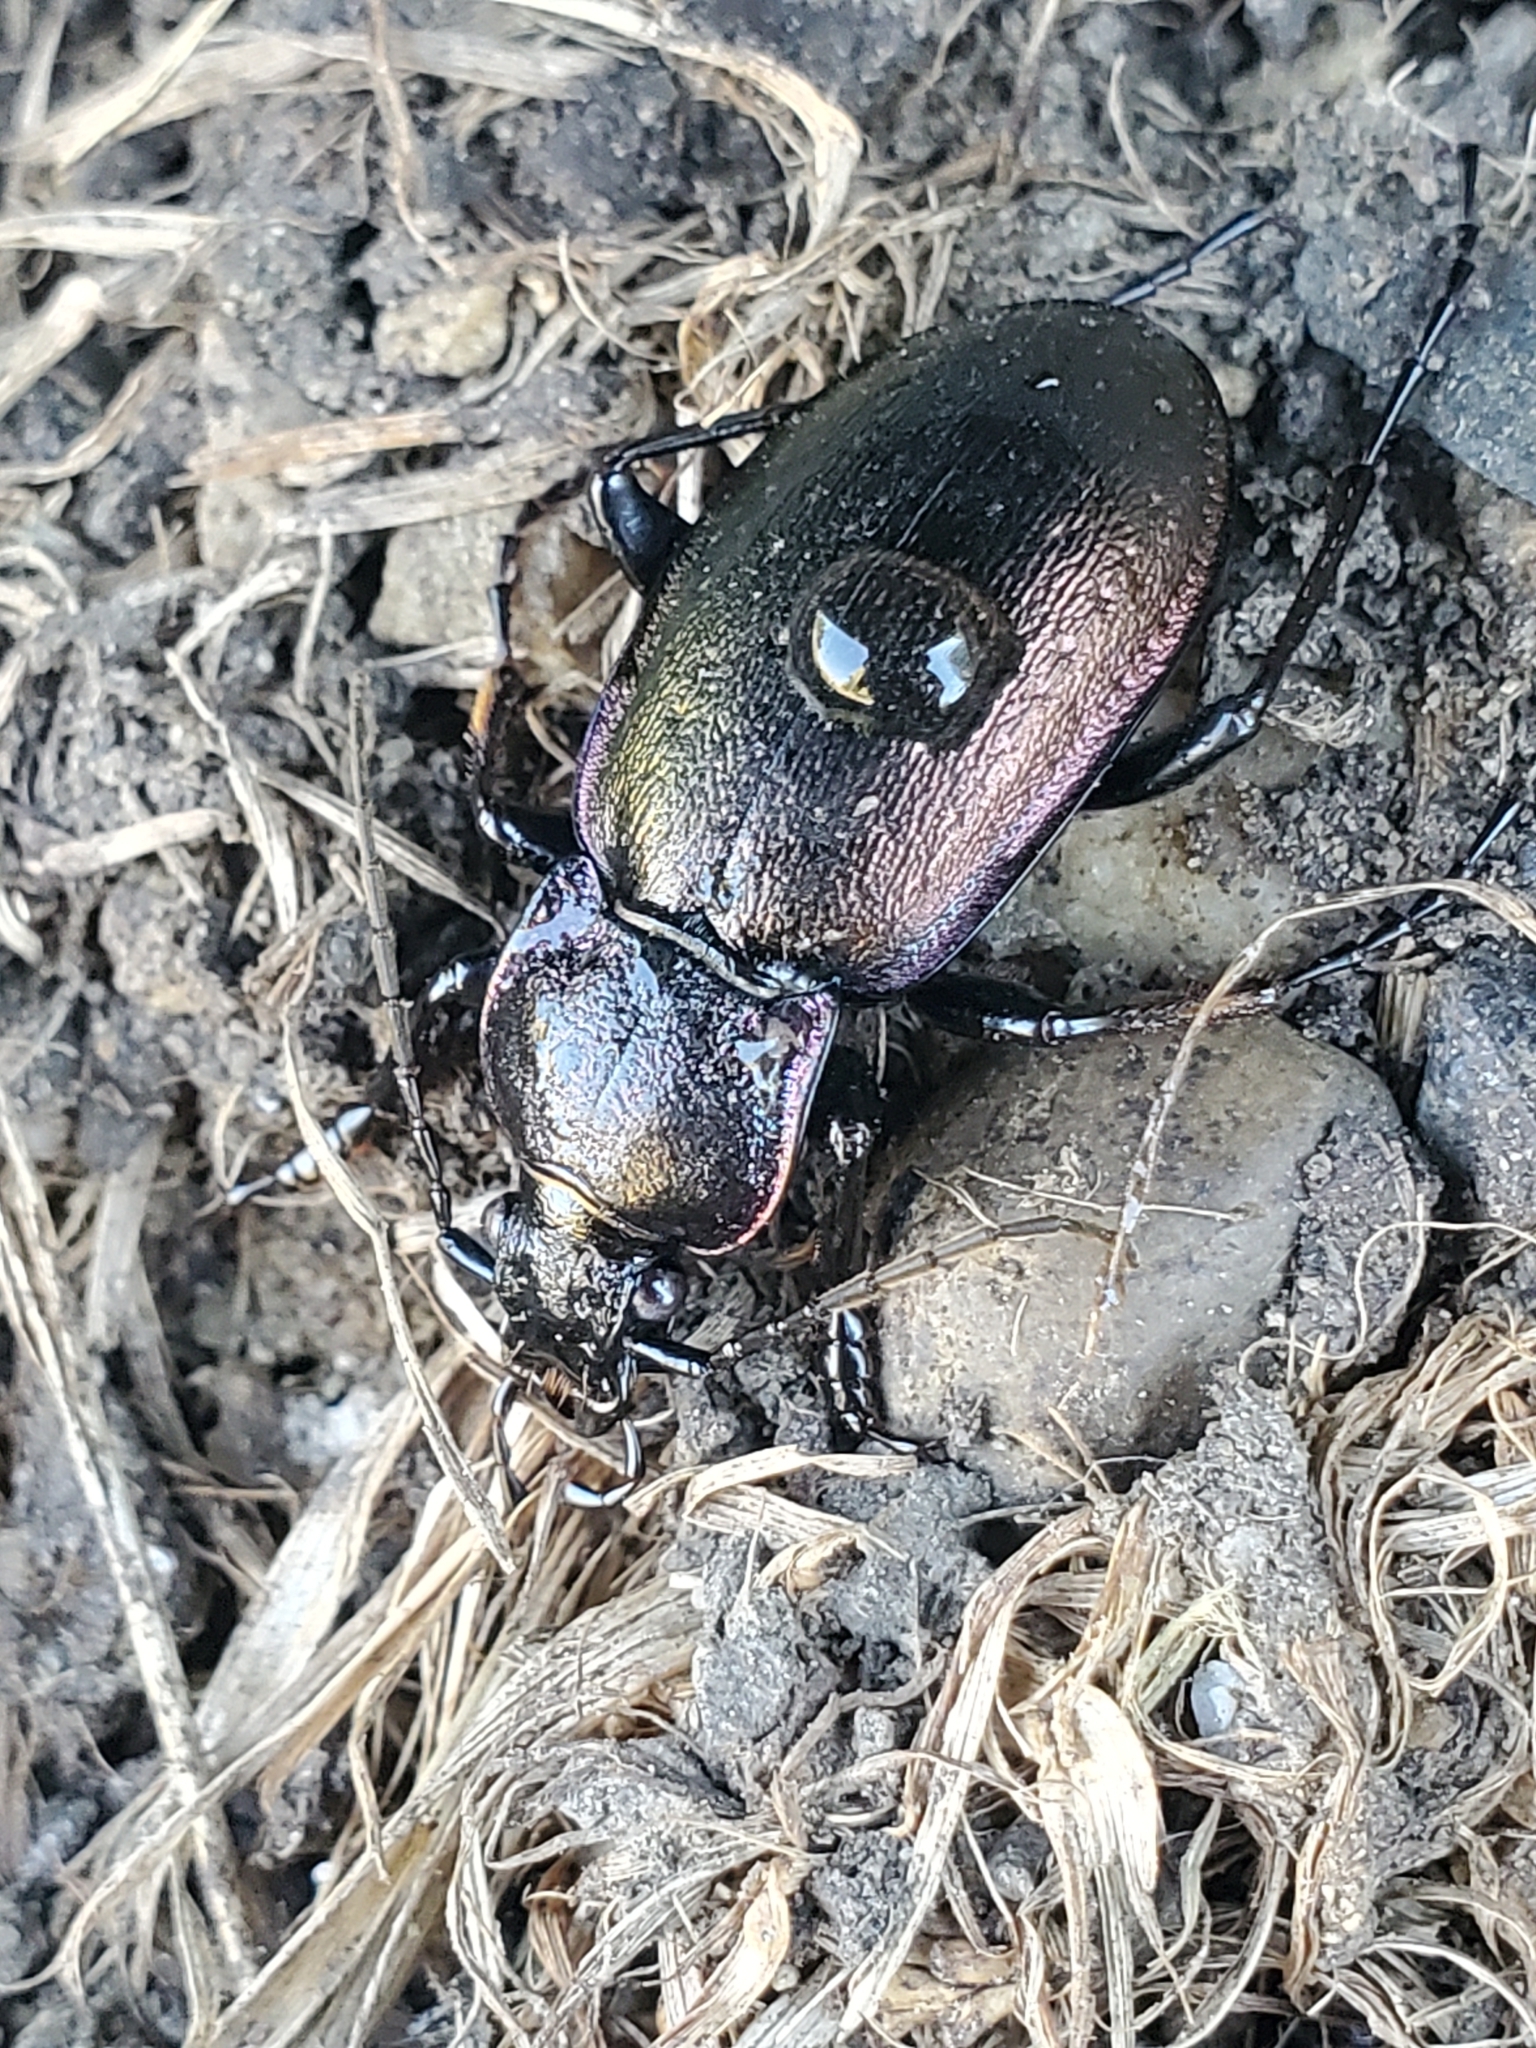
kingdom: Animalia
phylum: Arthropoda
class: Insecta
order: Coleoptera
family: Carabidae
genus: Carabus
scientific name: Carabus nemoralis
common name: European ground beetle
